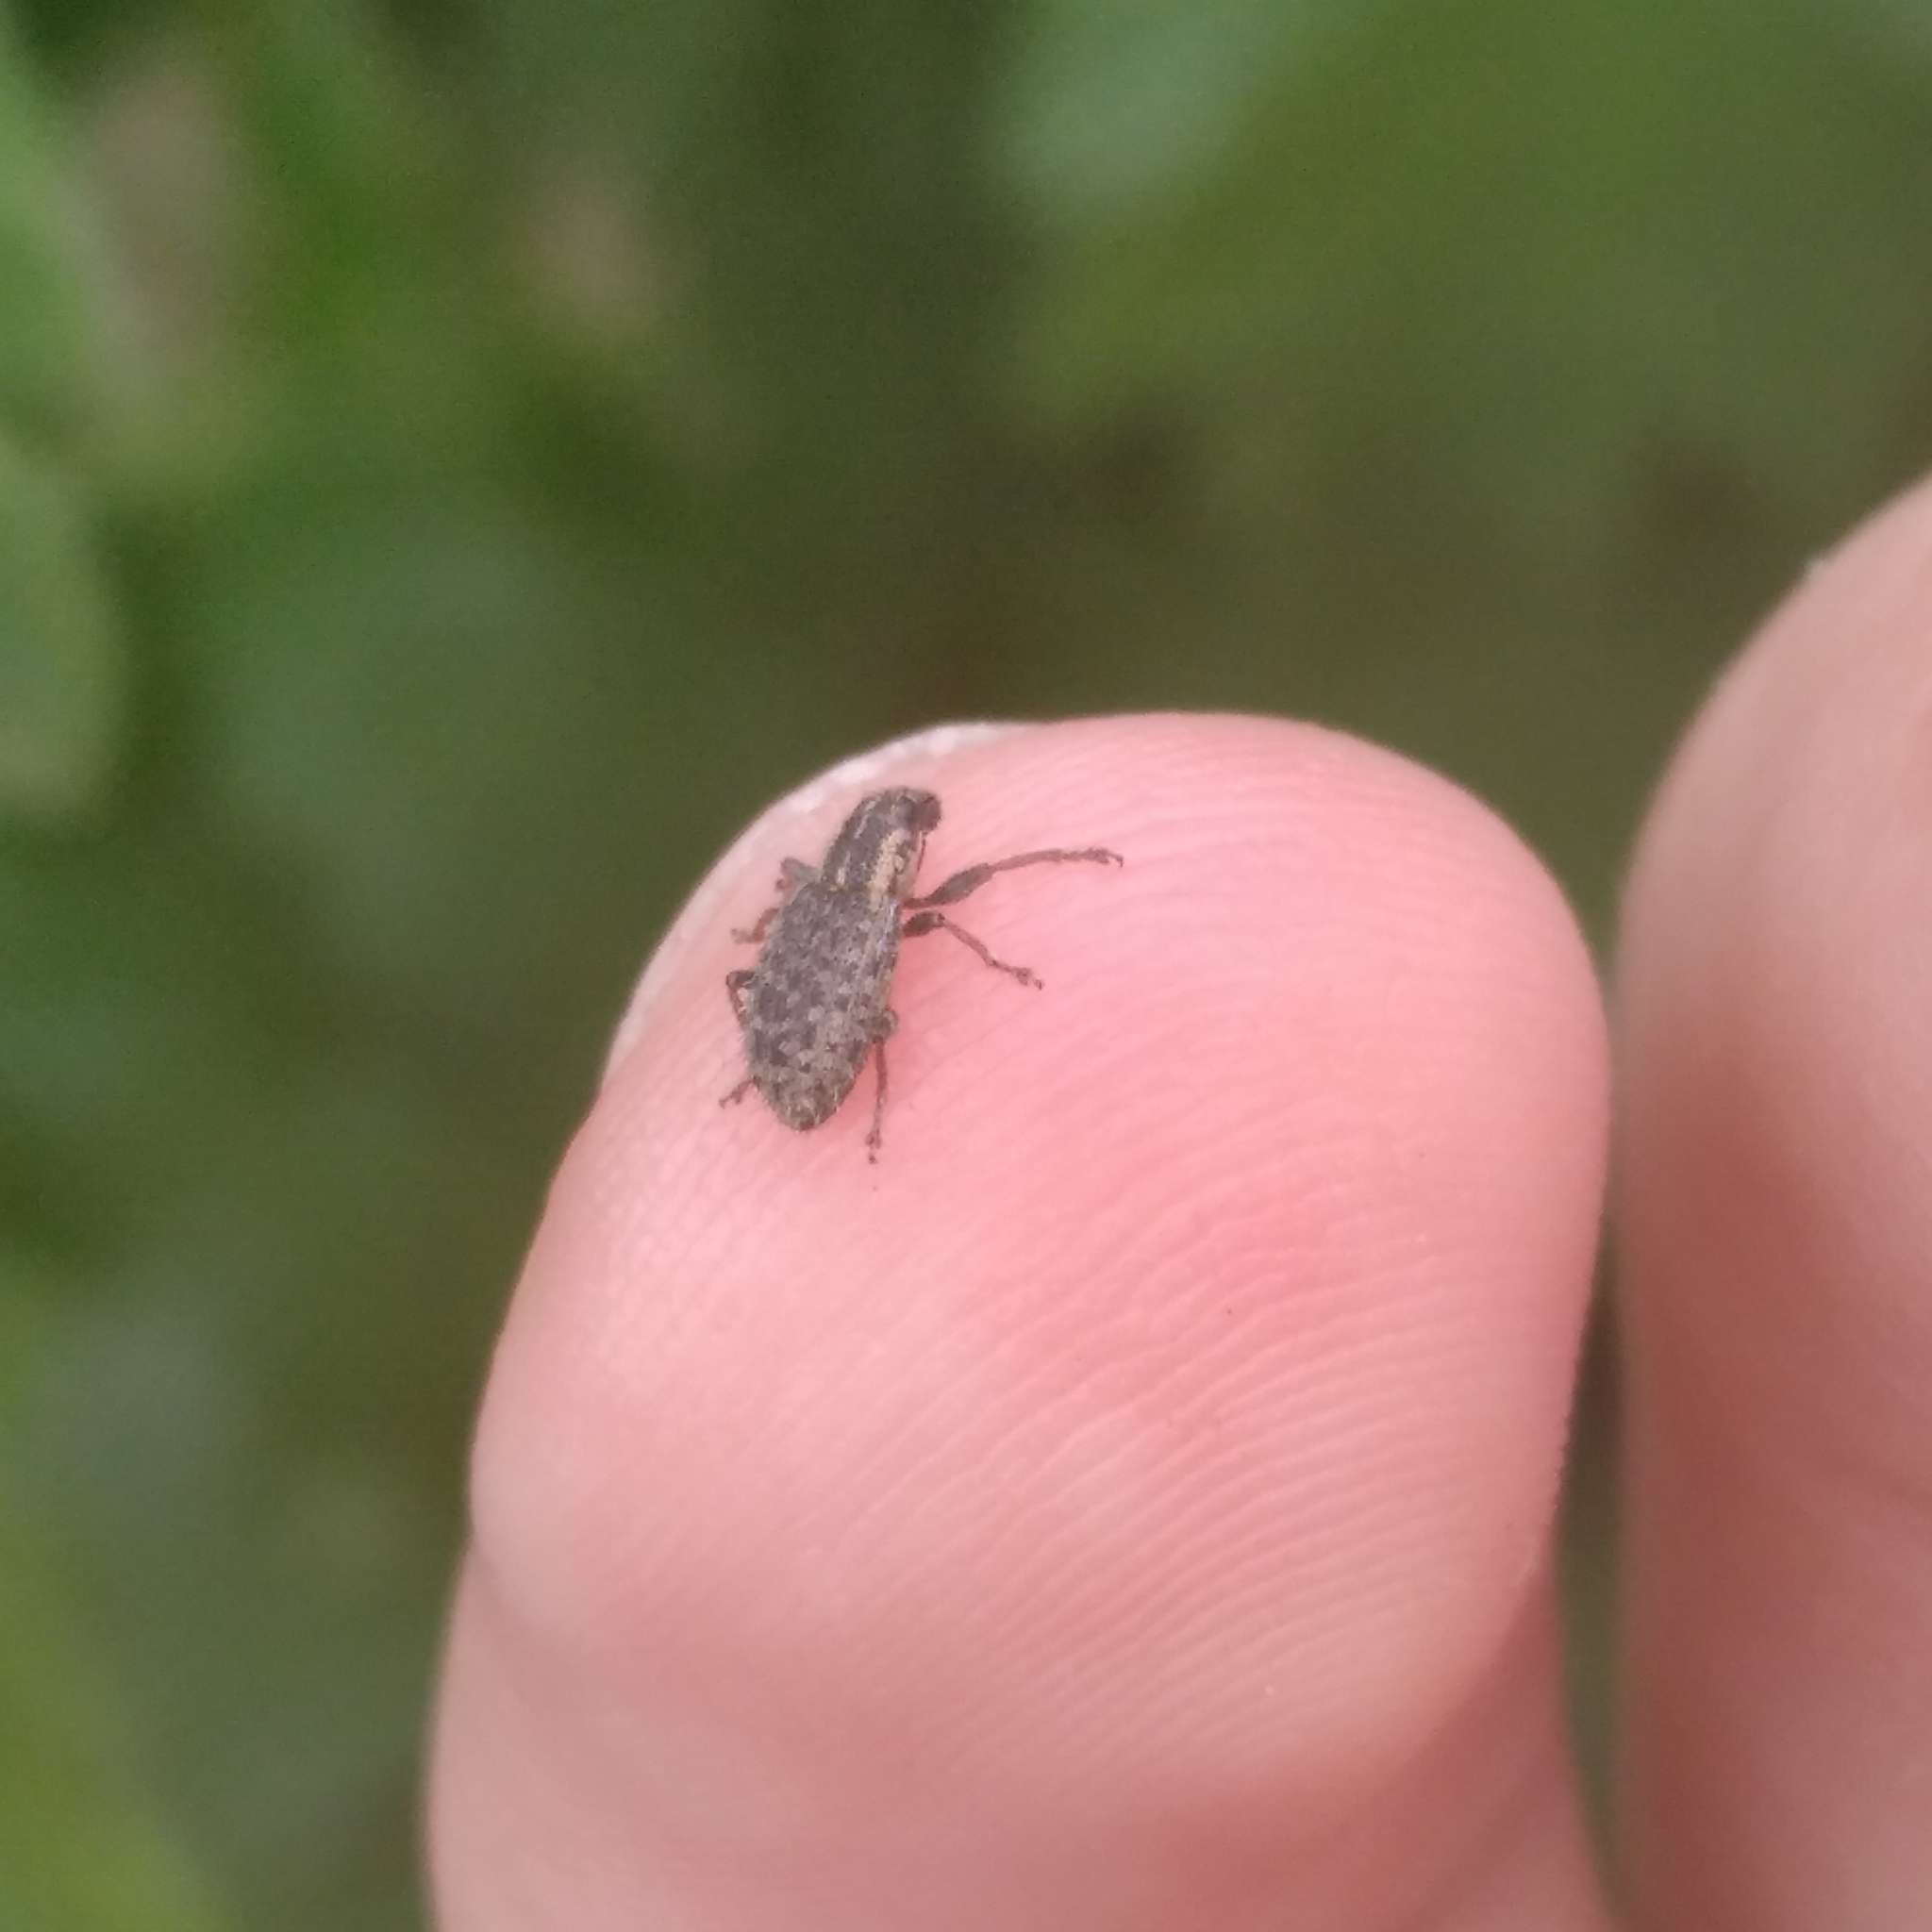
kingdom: Animalia
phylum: Arthropoda
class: Insecta
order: Coleoptera
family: Curculionidae
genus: Sitona
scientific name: Sitona hispidulus
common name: Clover weevil
